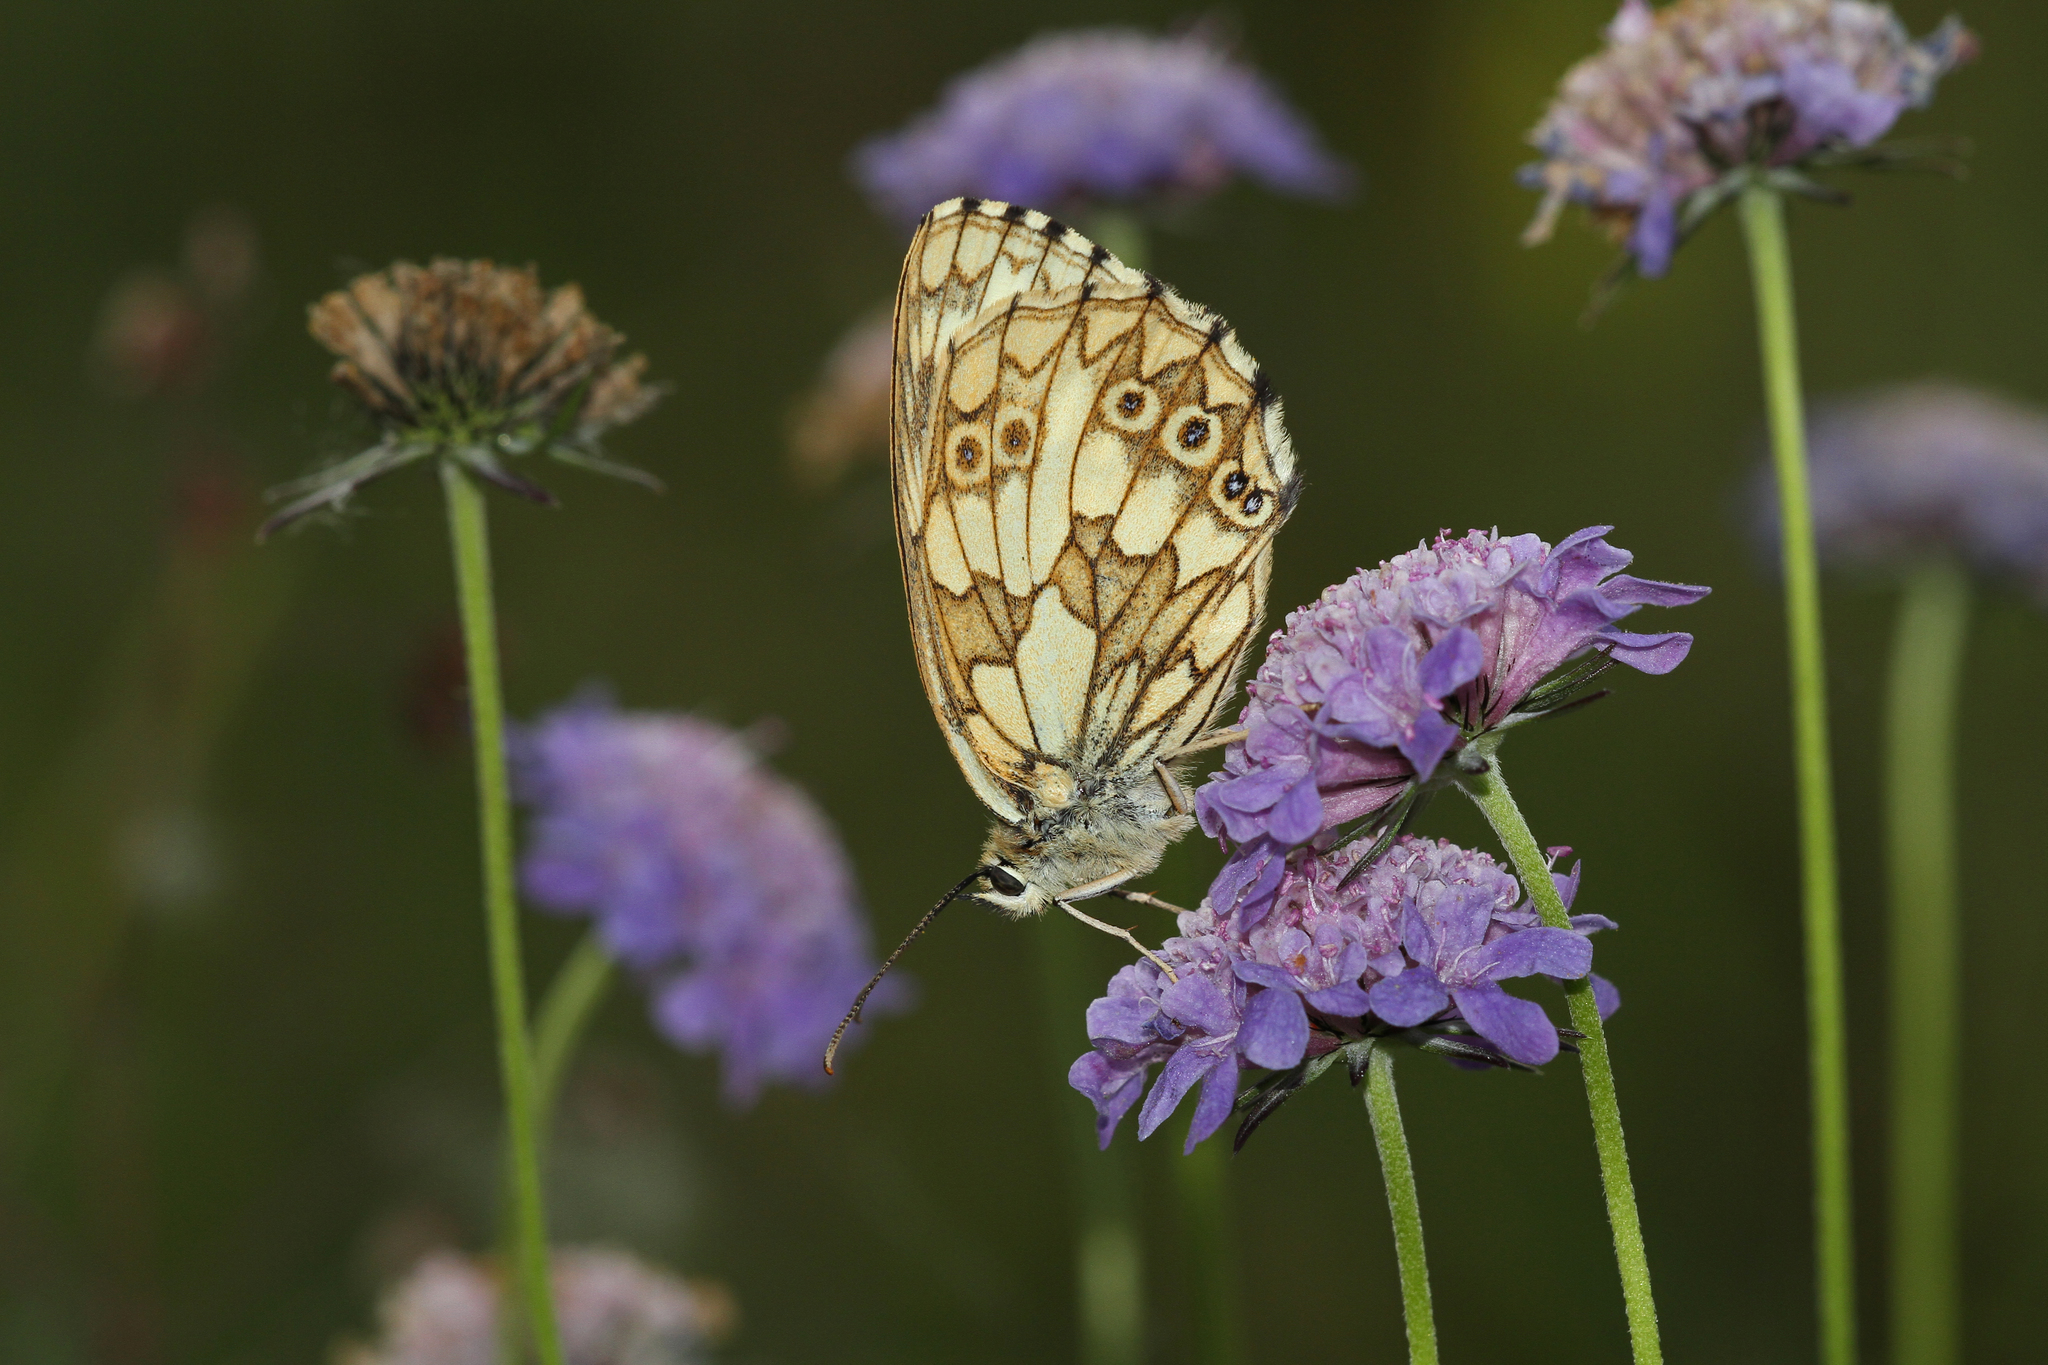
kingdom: Animalia
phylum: Arthropoda
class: Insecta
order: Lepidoptera
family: Nymphalidae
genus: Melanargia
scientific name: Melanargia galathea
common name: Marbled white
